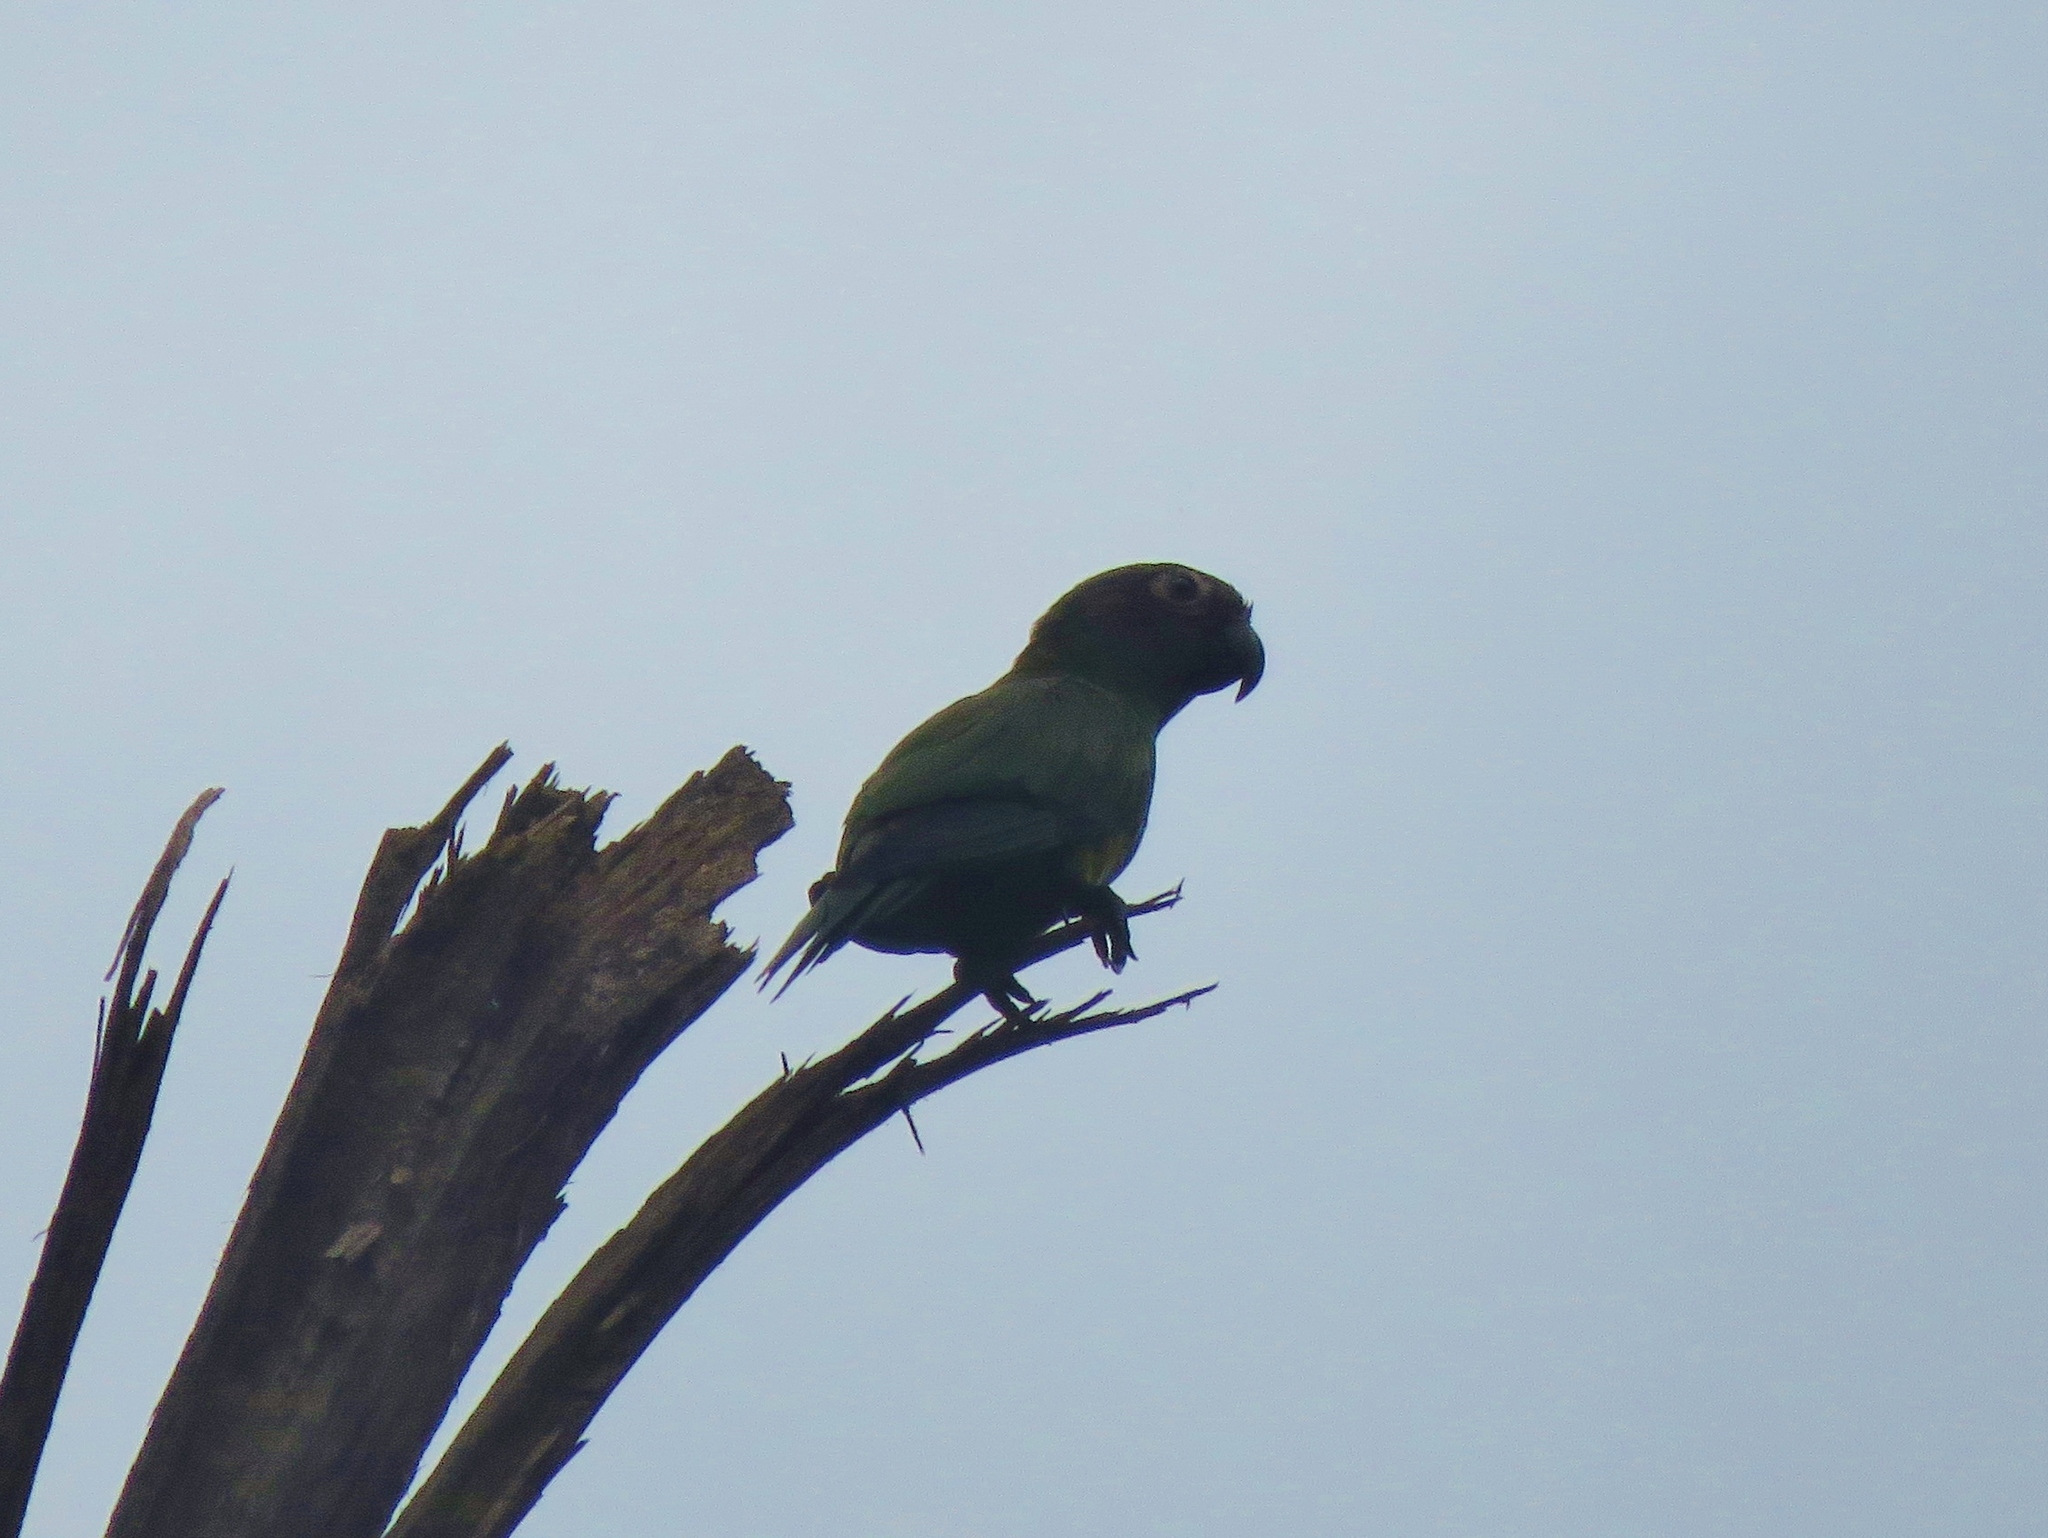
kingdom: Animalia
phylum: Chordata
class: Aves
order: Psittaciformes
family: Psittacidae
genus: Aratinga
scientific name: Aratinga weddellii
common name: Dusky-headed parakeet
